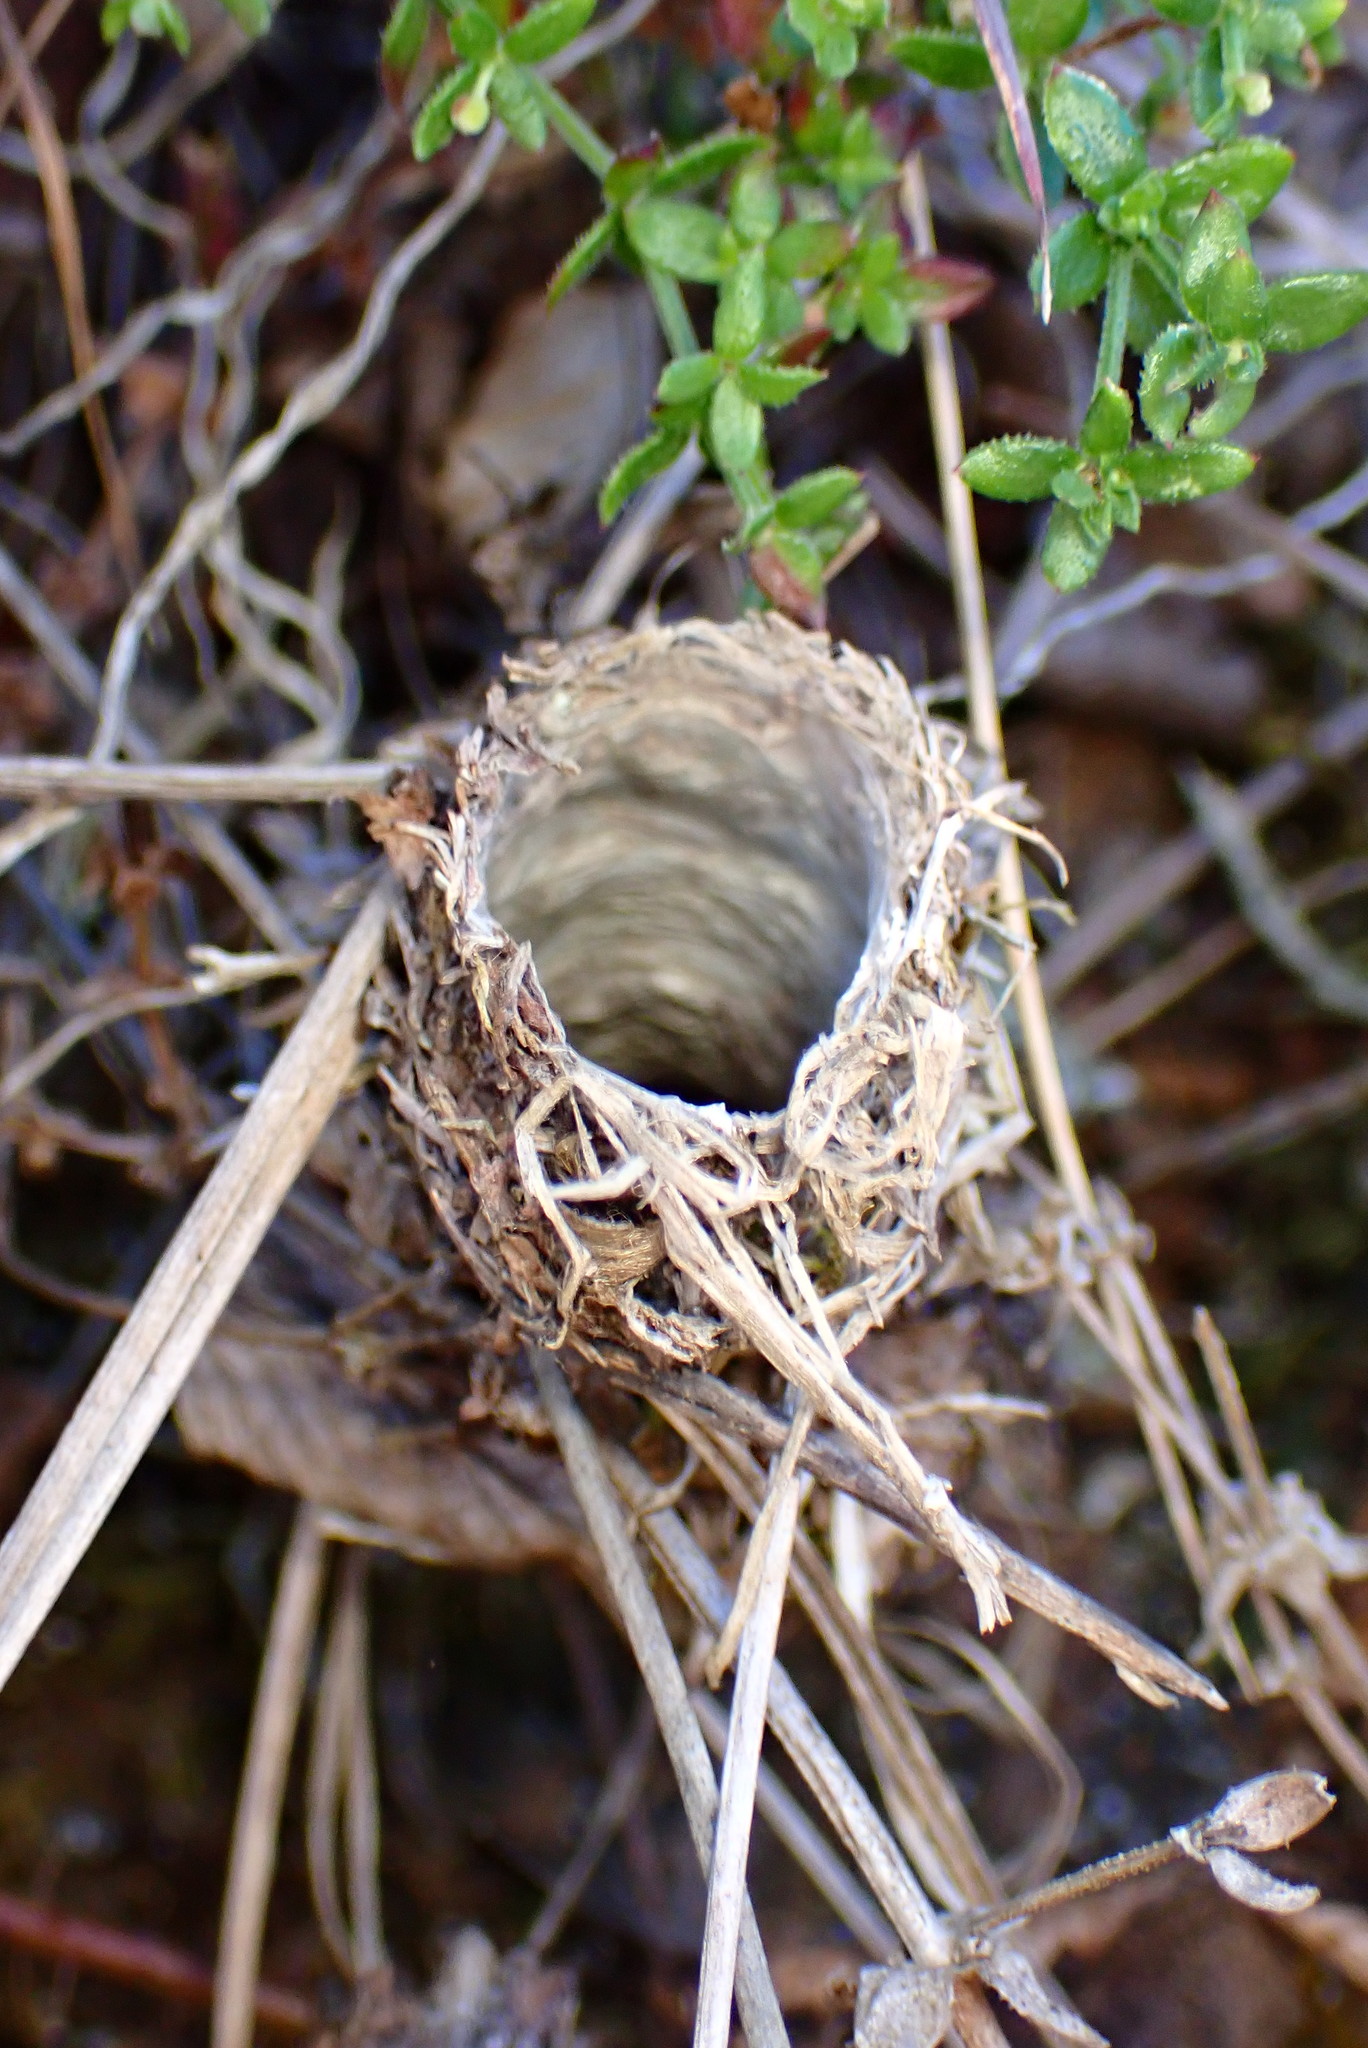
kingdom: Animalia
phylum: Arthropoda
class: Arachnida
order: Araneae
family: Antrodiaetidae
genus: Atypoides
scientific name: Atypoides riversi
